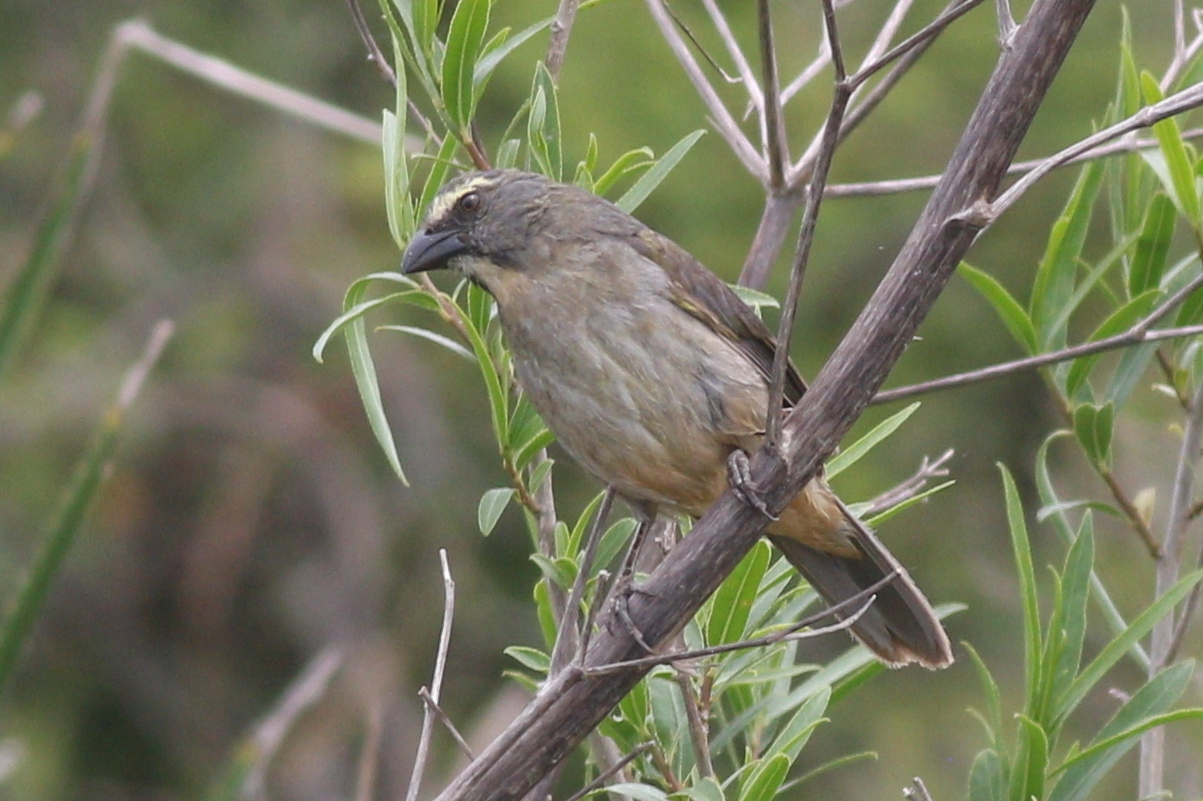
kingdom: Animalia
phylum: Chordata
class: Aves
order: Passeriformes
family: Thraupidae
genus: Saltator
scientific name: Saltator coerulescens
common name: Grayish saltator
